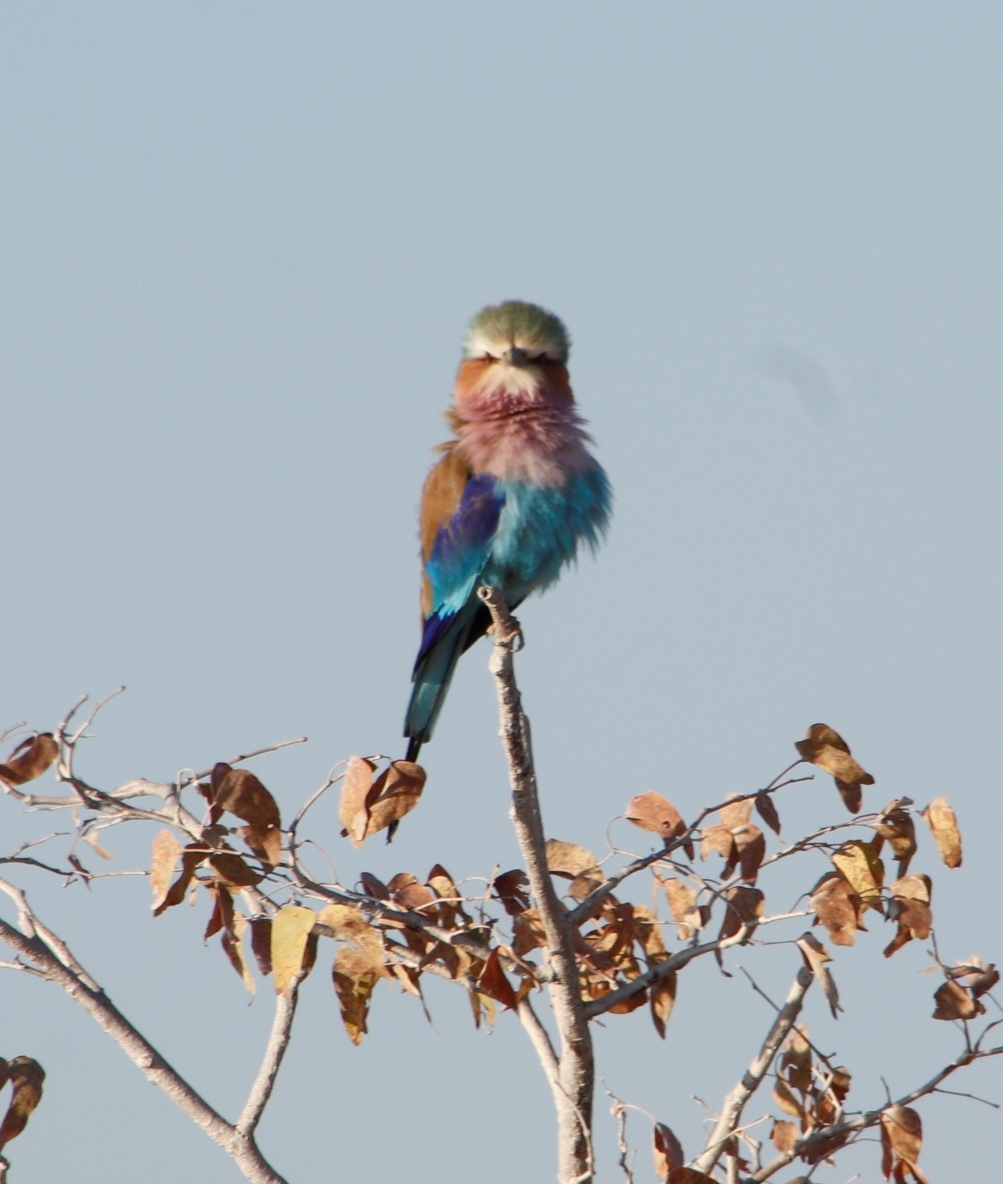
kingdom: Animalia
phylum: Chordata
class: Aves
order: Coraciiformes
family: Coraciidae
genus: Coracias
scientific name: Coracias caudatus
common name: Lilac-breasted roller
